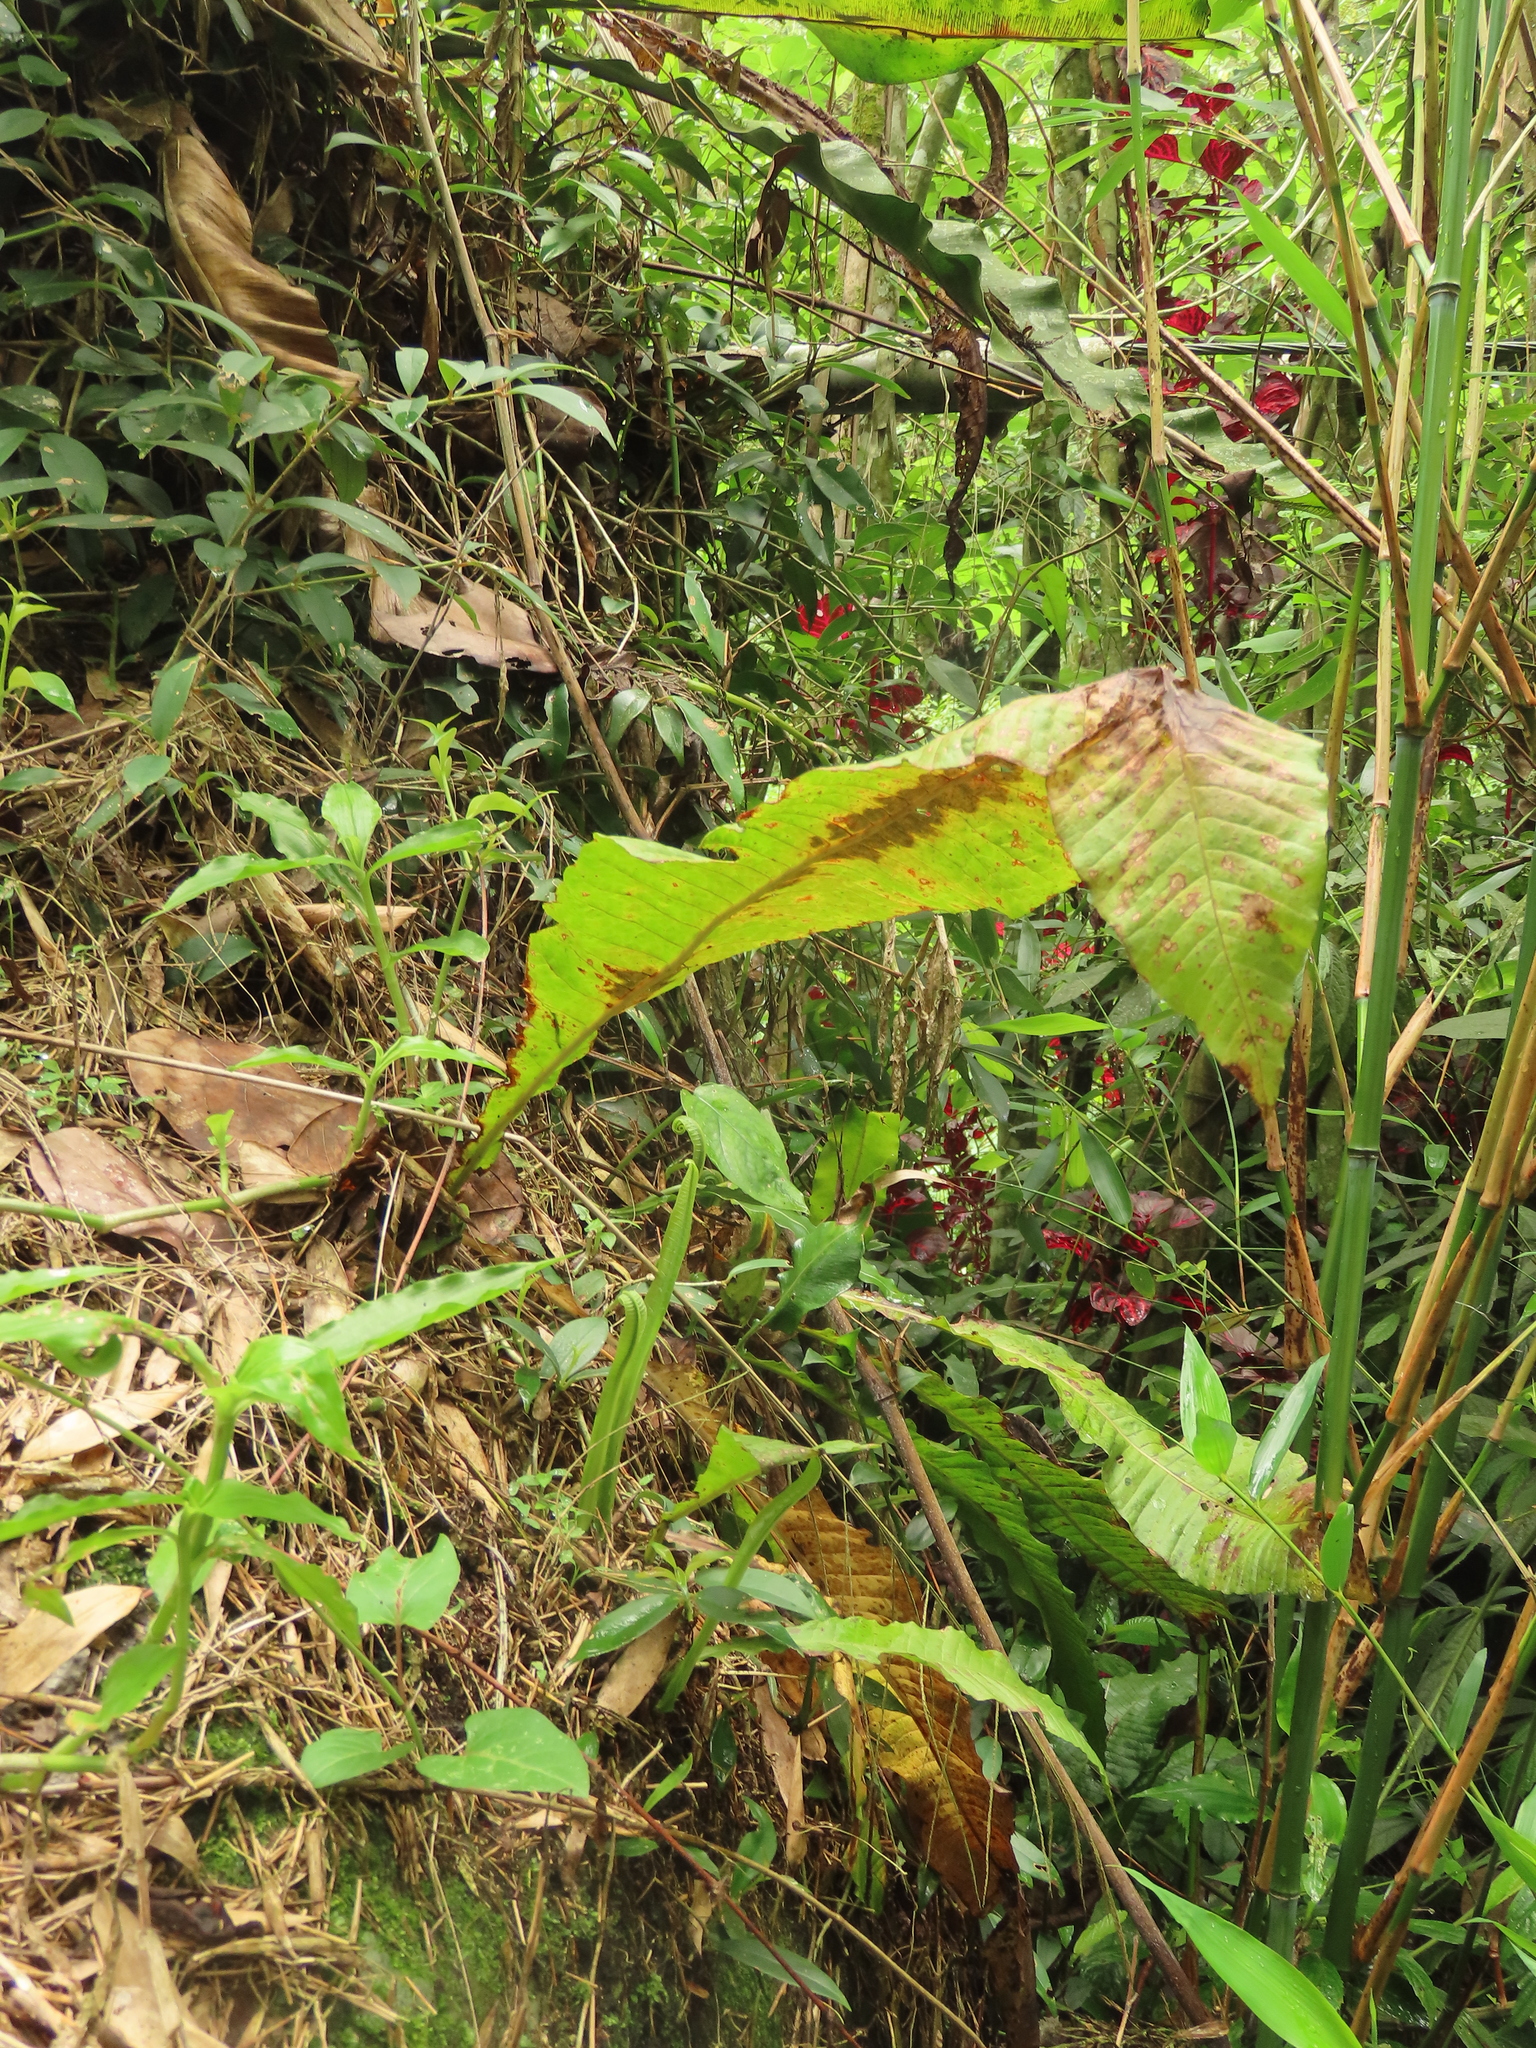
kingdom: Plantae
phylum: Tracheophyta
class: Polypodiopsida
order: Polypodiales
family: Polypodiaceae
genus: Bosmania
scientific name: Bosmania membranacea
